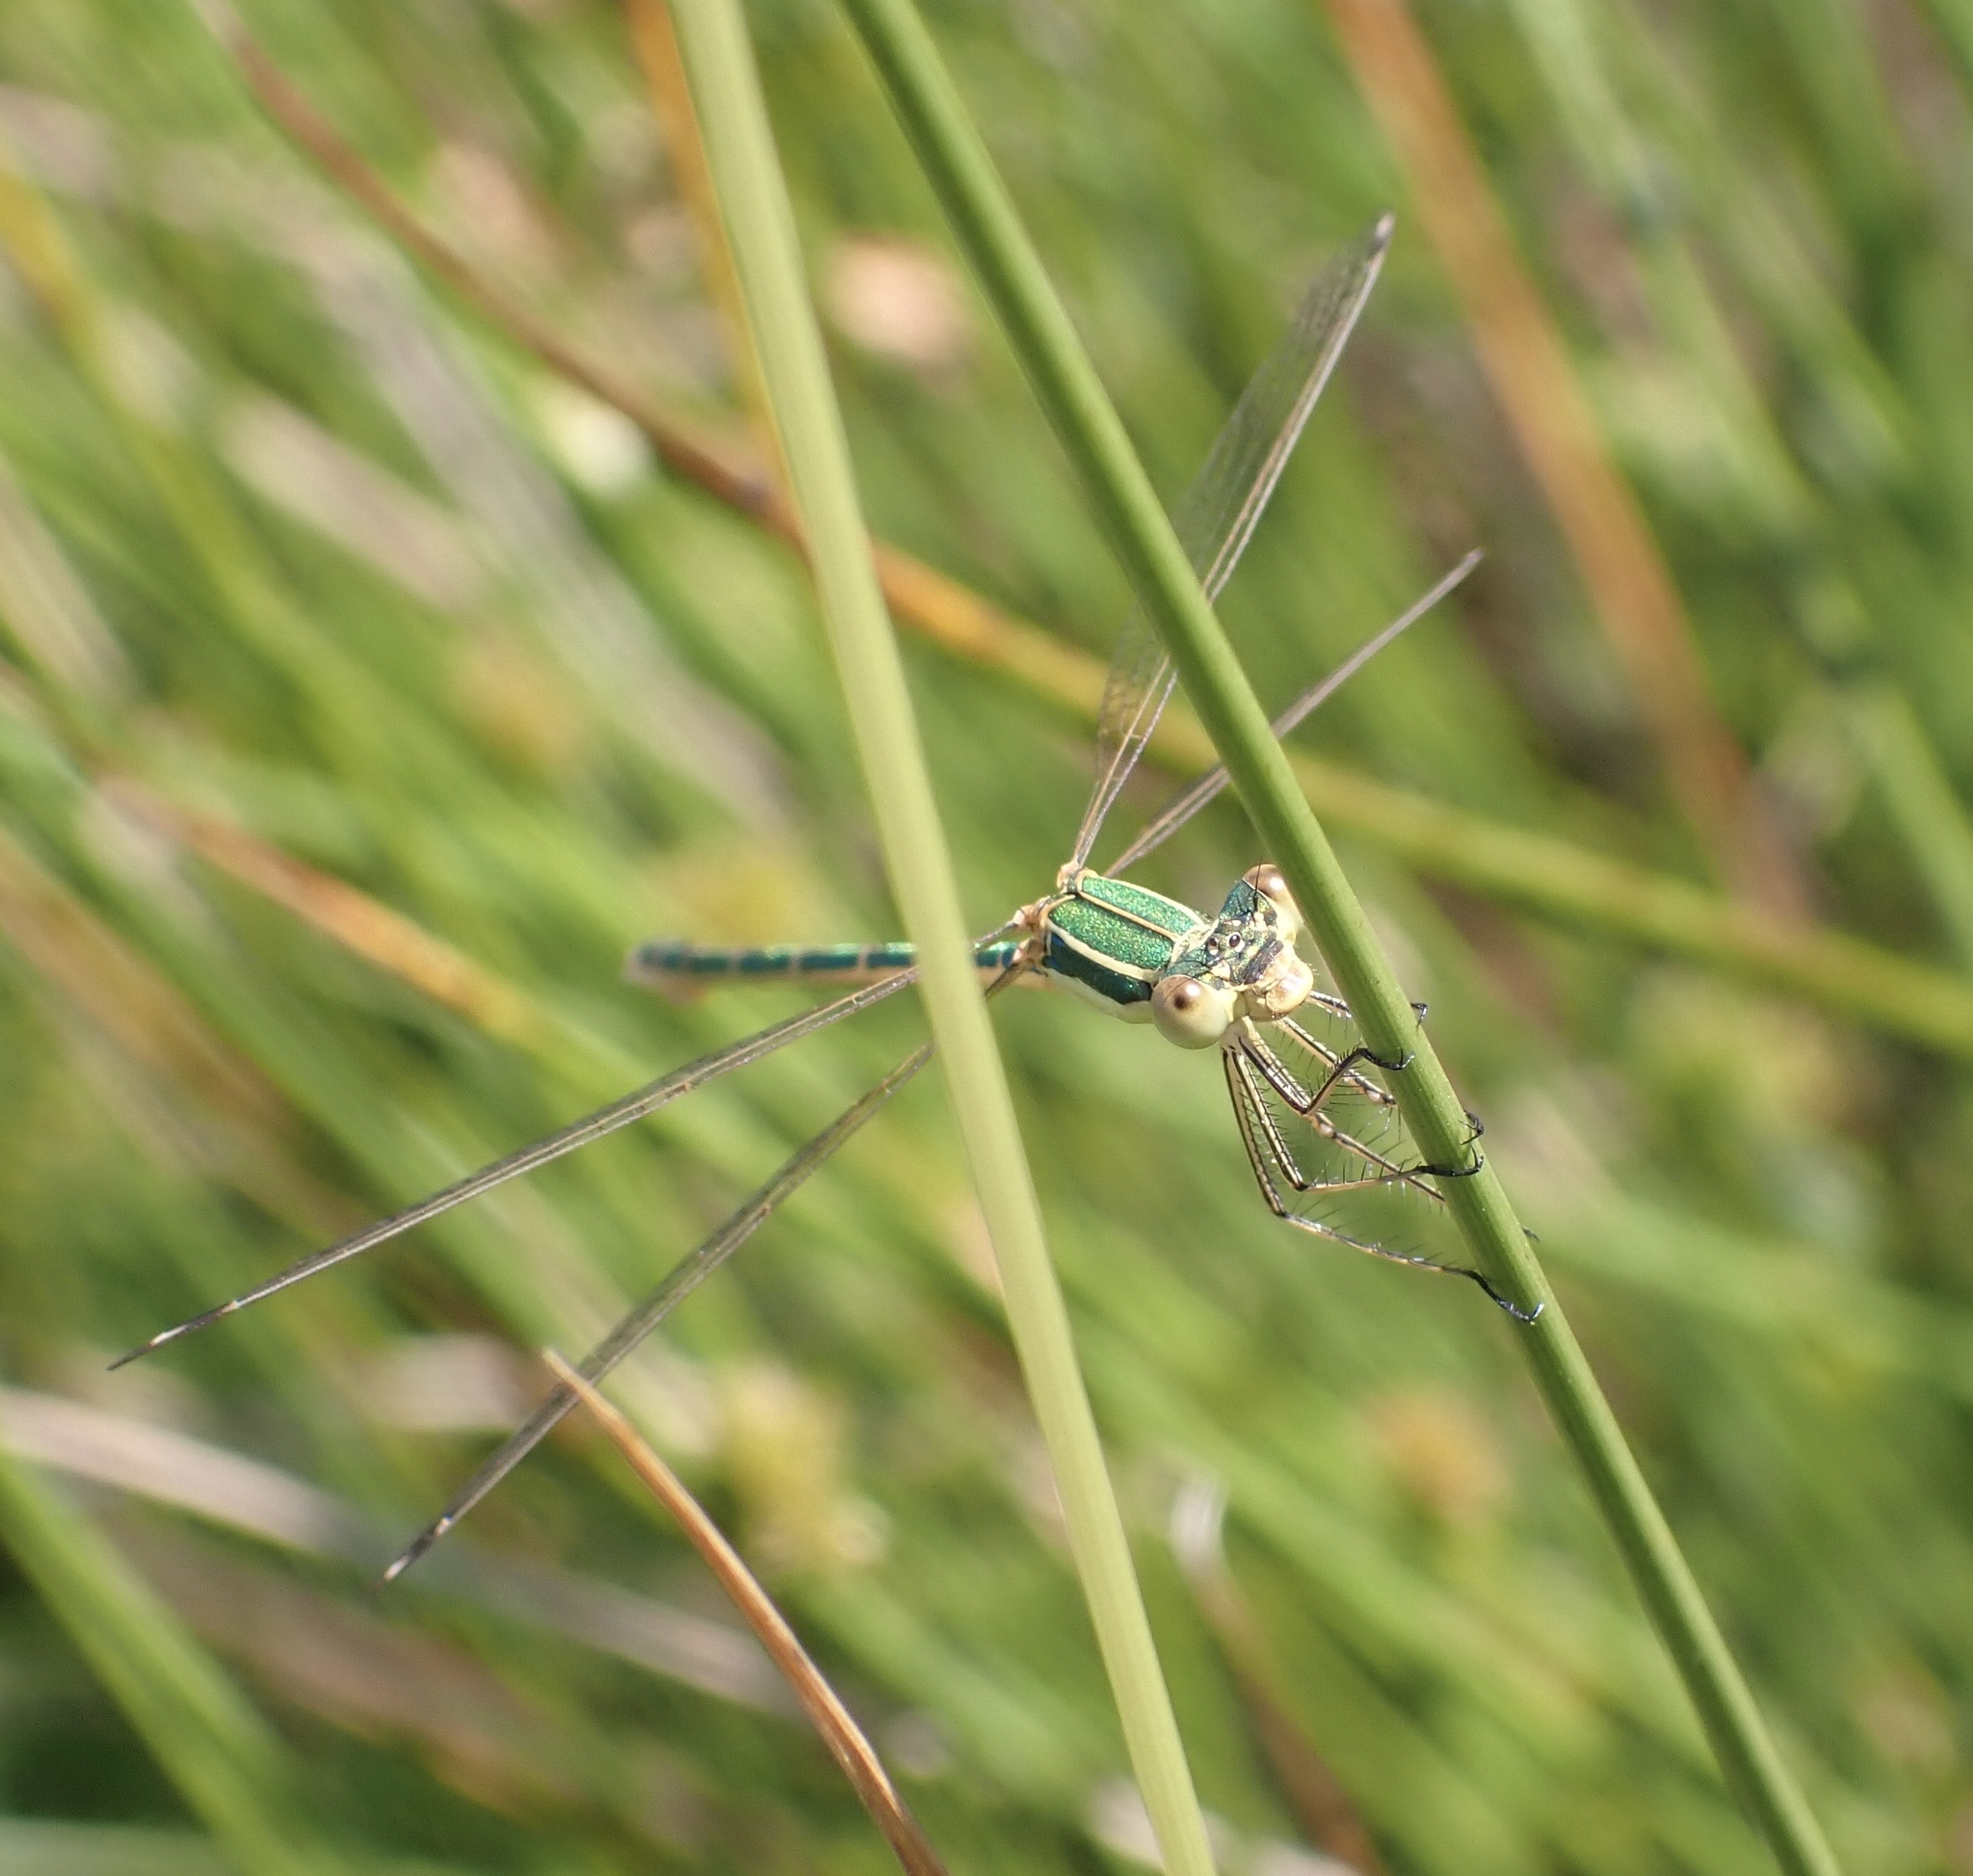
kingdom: Animalia
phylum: Arthropoda
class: Insecta
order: Odonata
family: Lestidae
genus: Lestes
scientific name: Lestes barbarus
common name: Migrant spreadwing
